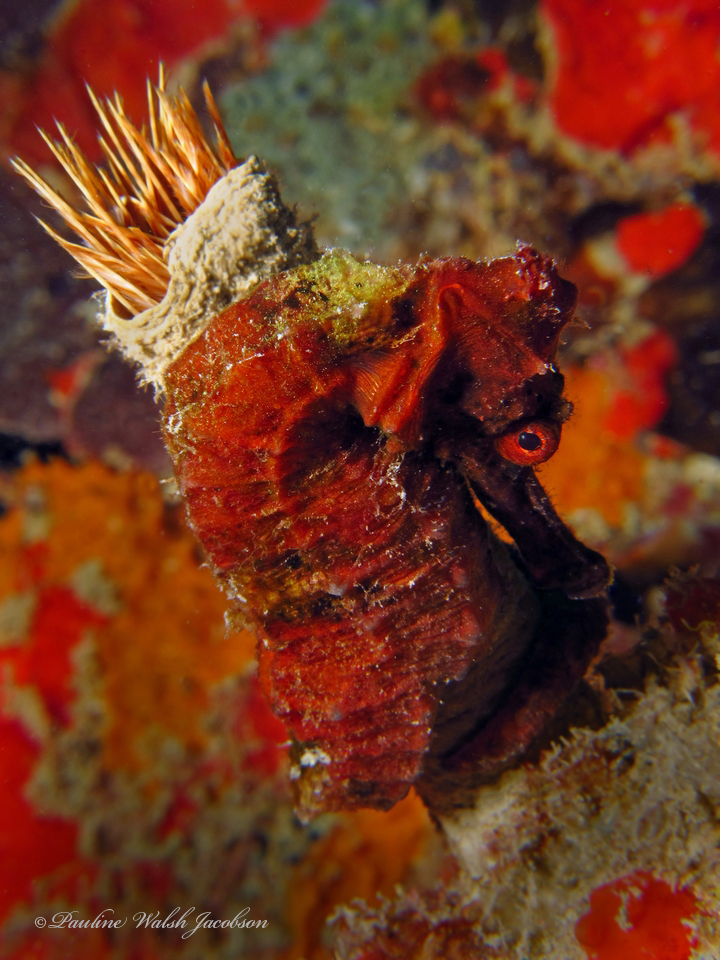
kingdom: Animalia
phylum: Chordata
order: Syngnathiformes
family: Syngnathidae
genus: Hippocampus
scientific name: Hippocampus reidi
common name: Slender seahorse
